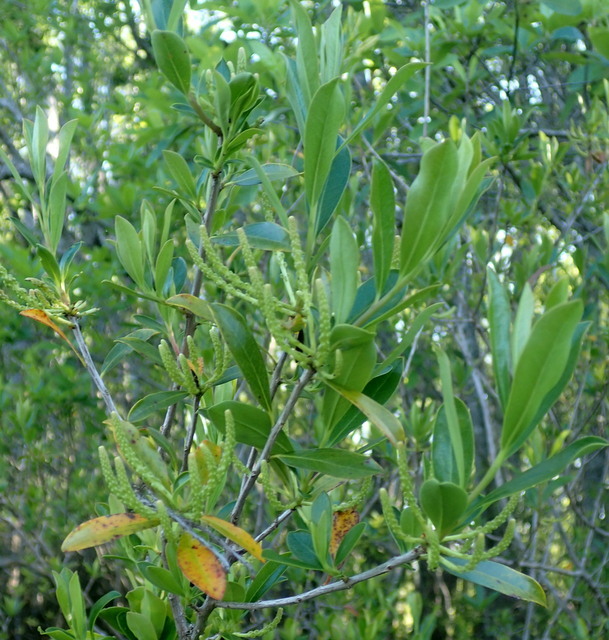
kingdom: Plantae
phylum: Tracheophyta
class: Magnoliopsida
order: Ericales
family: Cyrillaceae
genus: Cyrilla
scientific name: Cyrilla racemiflora
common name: Black titi
